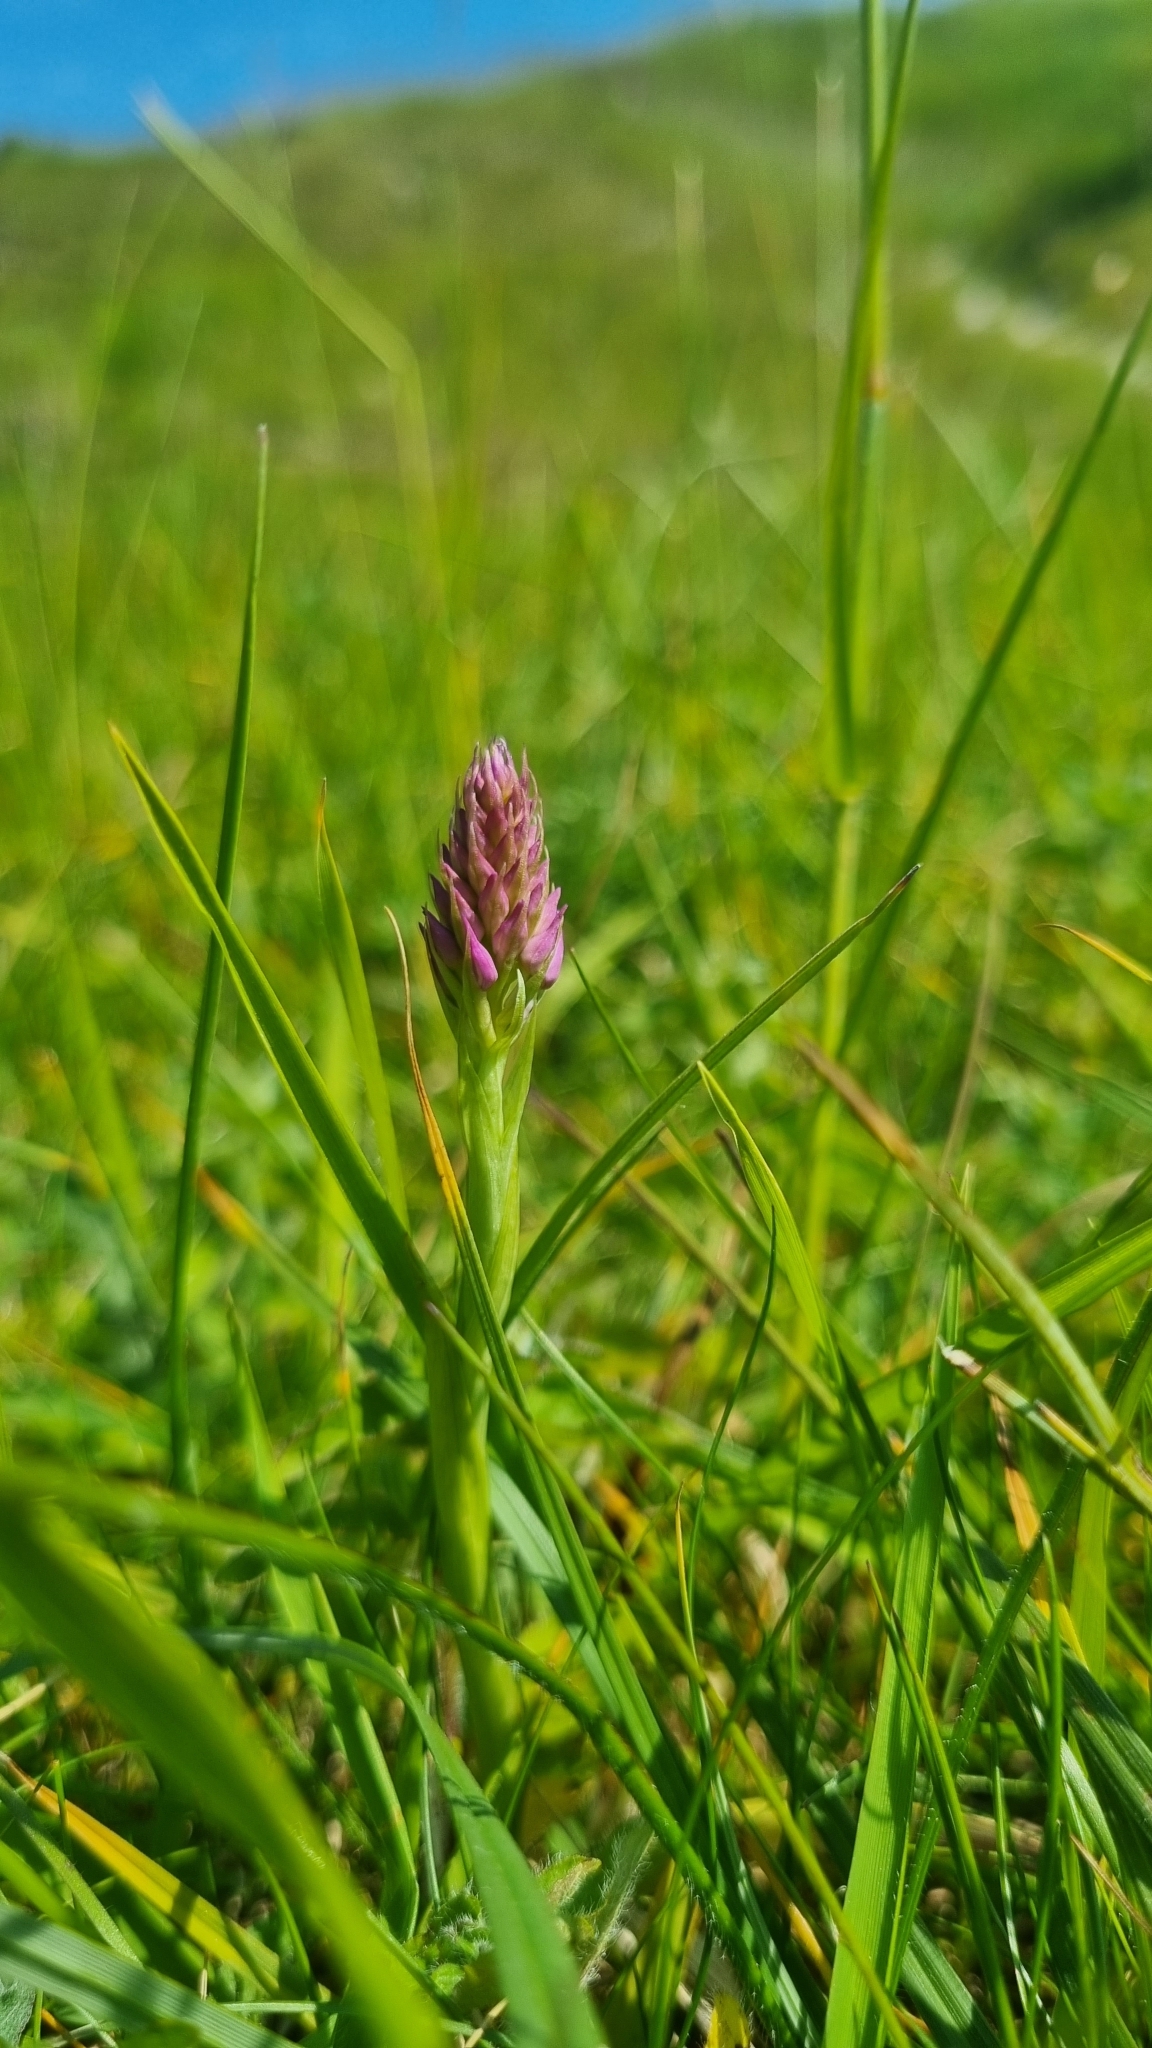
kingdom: Plantae
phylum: Tracheophyta
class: Liliopsida
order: Asparagales
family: Orchidaceae
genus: Anacamptis
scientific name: Anacamptis pyramidalis
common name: Pyramidal orchid
